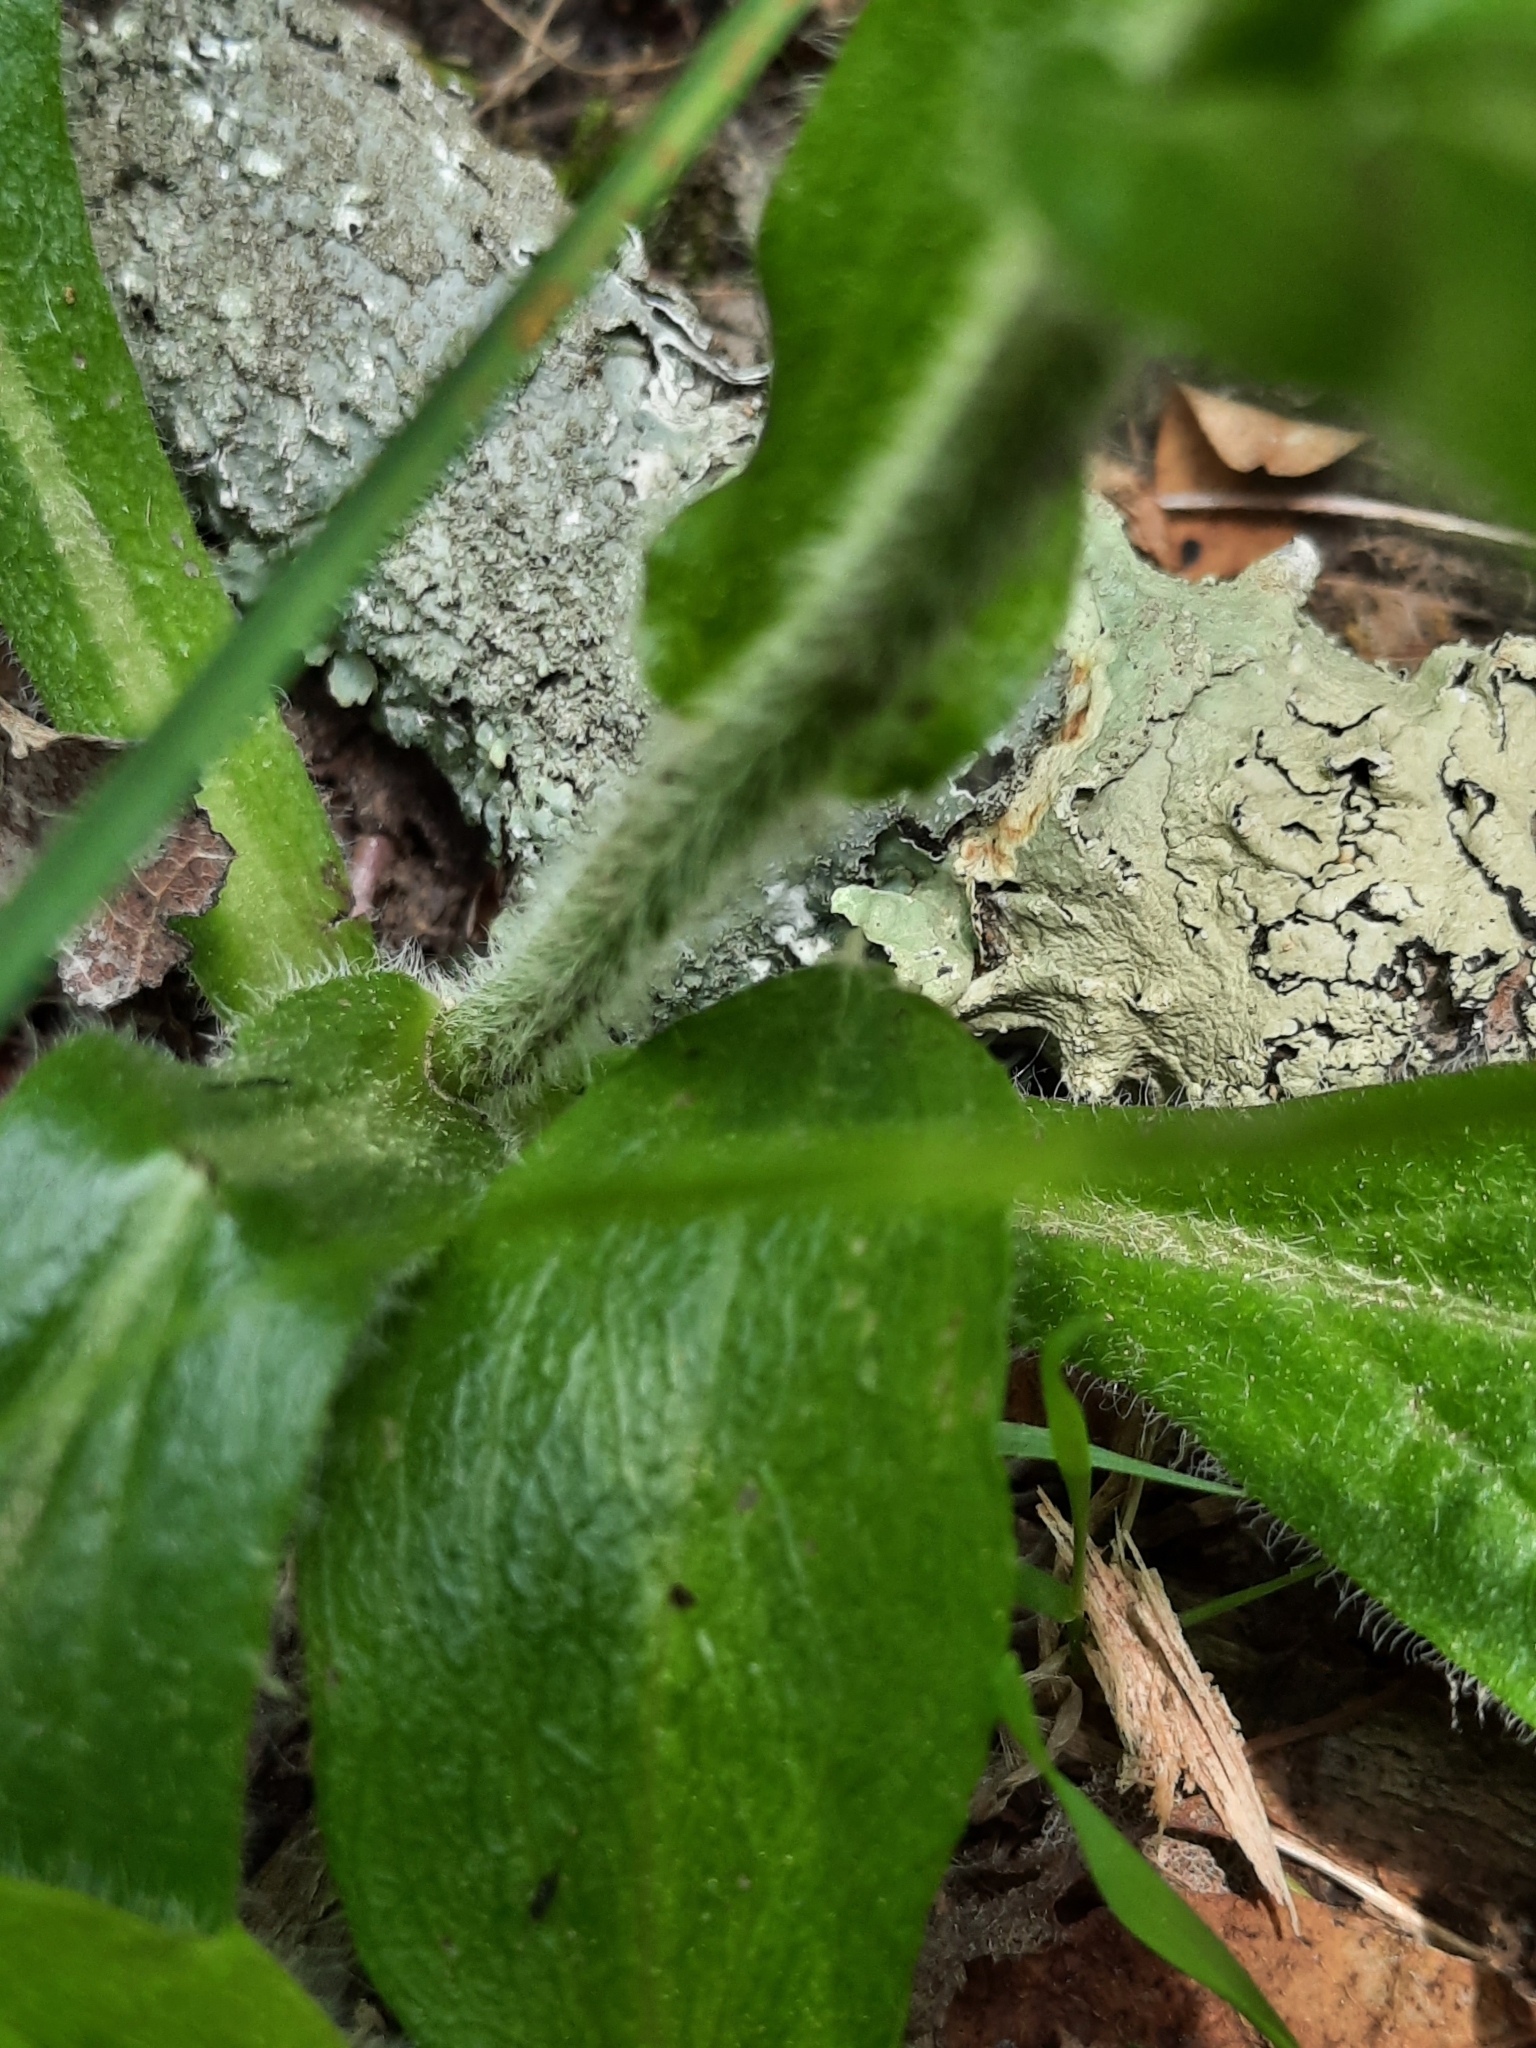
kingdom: Plantae
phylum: Tracheophyta
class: Magnoliopsida
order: Asterales
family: Asteraceae
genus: Erigeron
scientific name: Erigeron pulchellus
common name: Hairy fleabane
